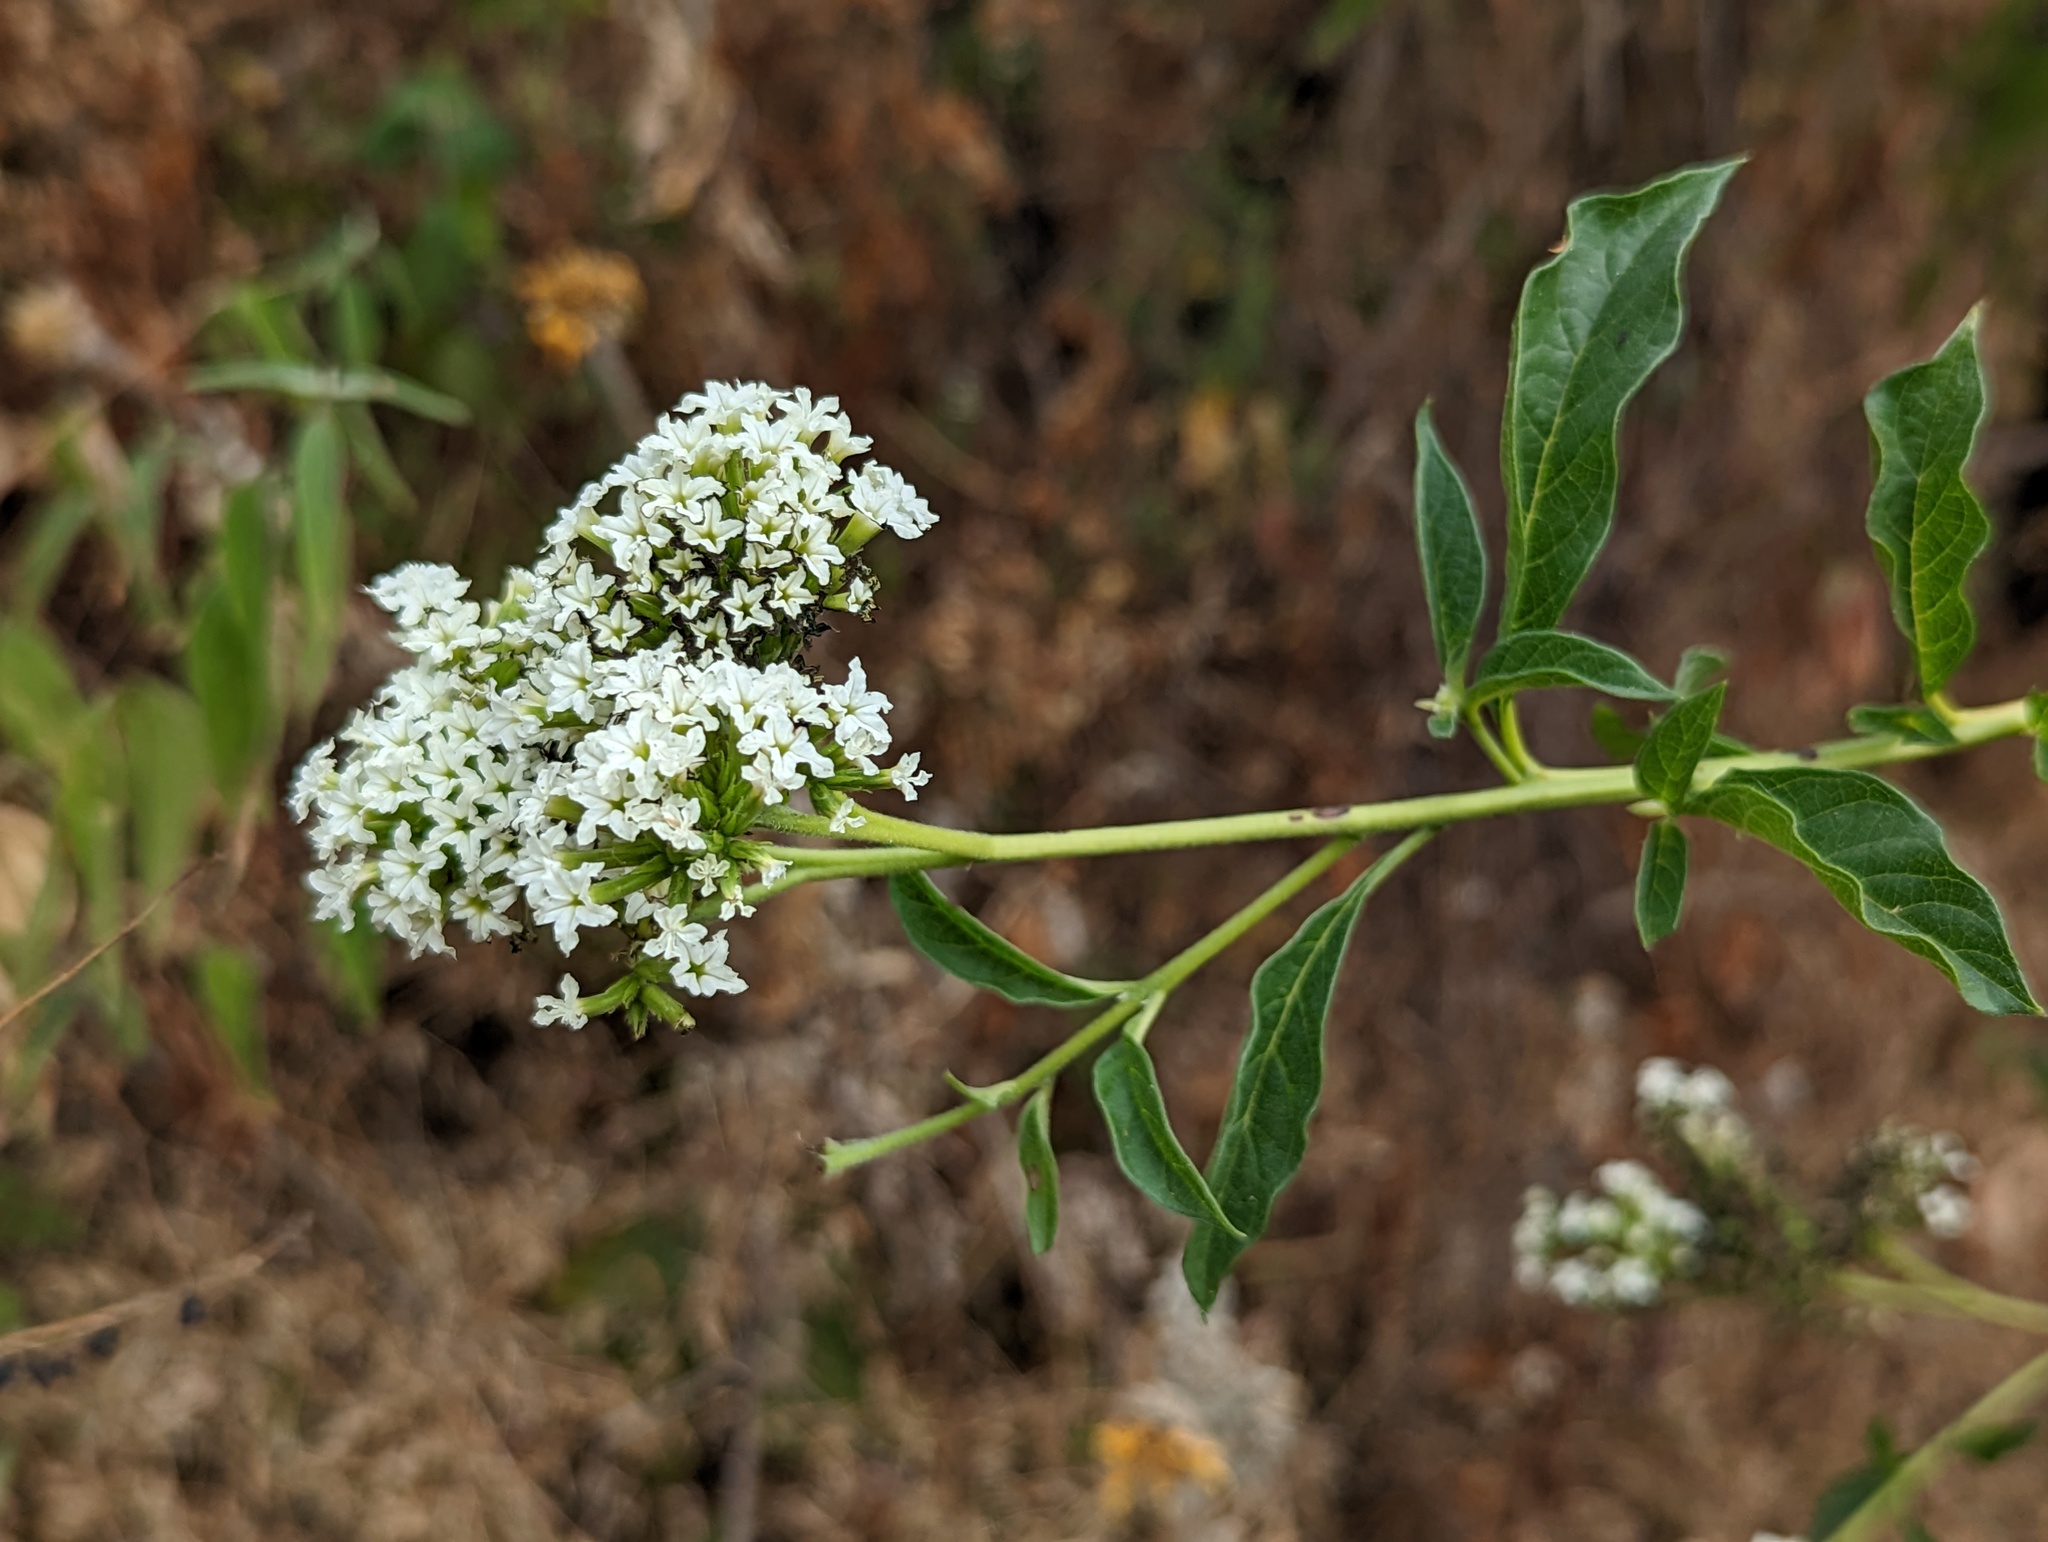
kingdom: Plantae
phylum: Tracheophyta
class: Magnoliopsida
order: Boraginales
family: Heliotropiaceae
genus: Tournefortia
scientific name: Tournefortia mutabilis
